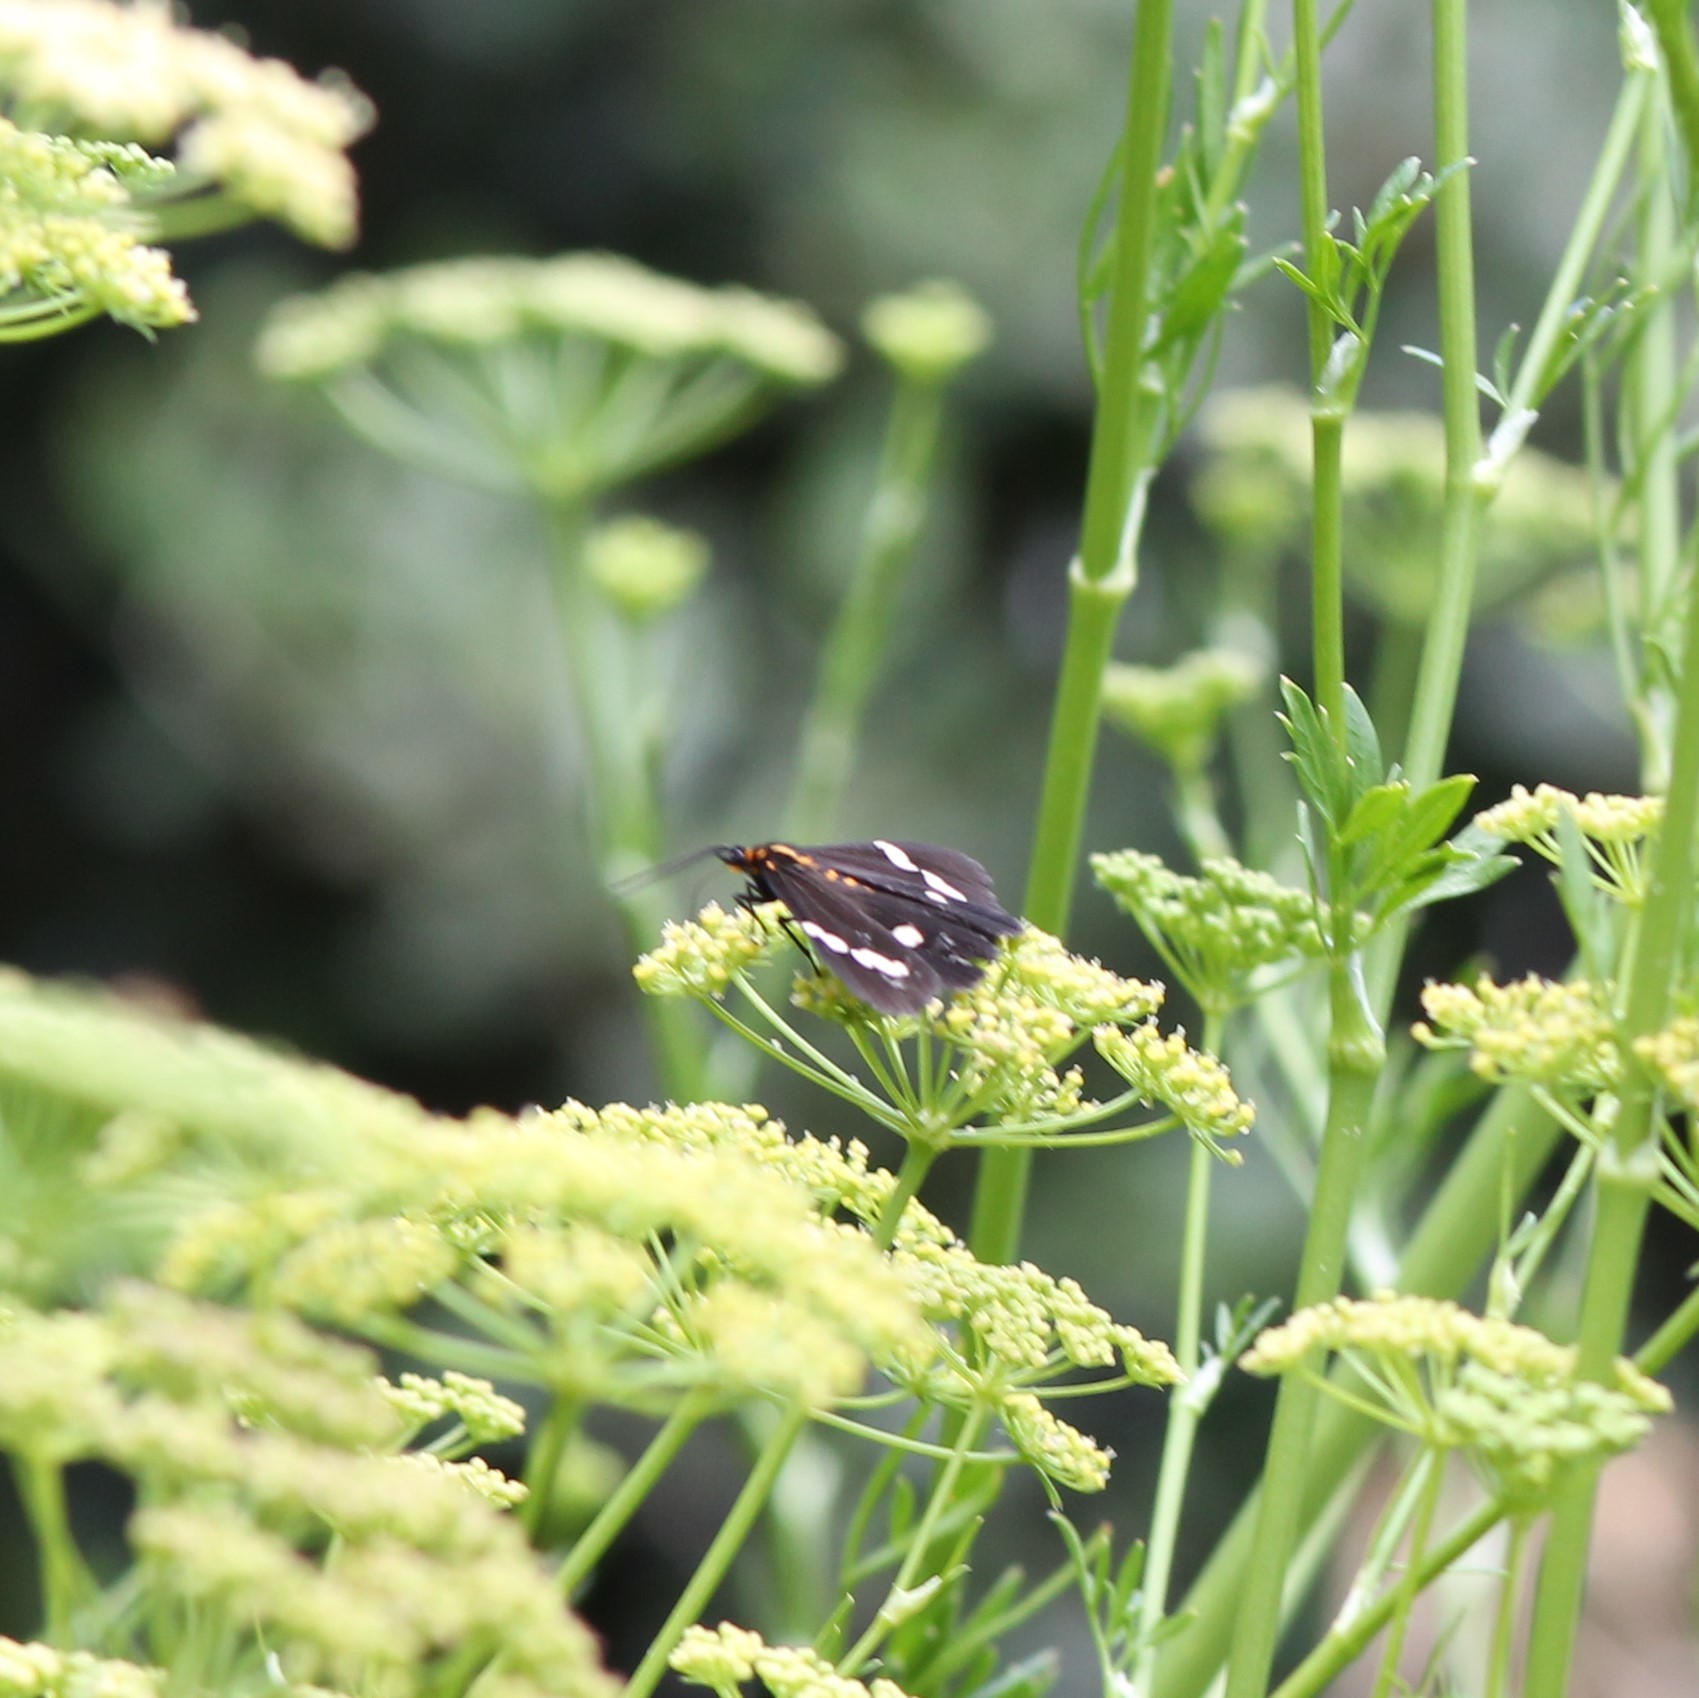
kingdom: Animalia
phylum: Arthropoda
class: Insecta
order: Lepidoptera
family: Erebidae
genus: Nyctemera
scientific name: Nyctemera annulatum
